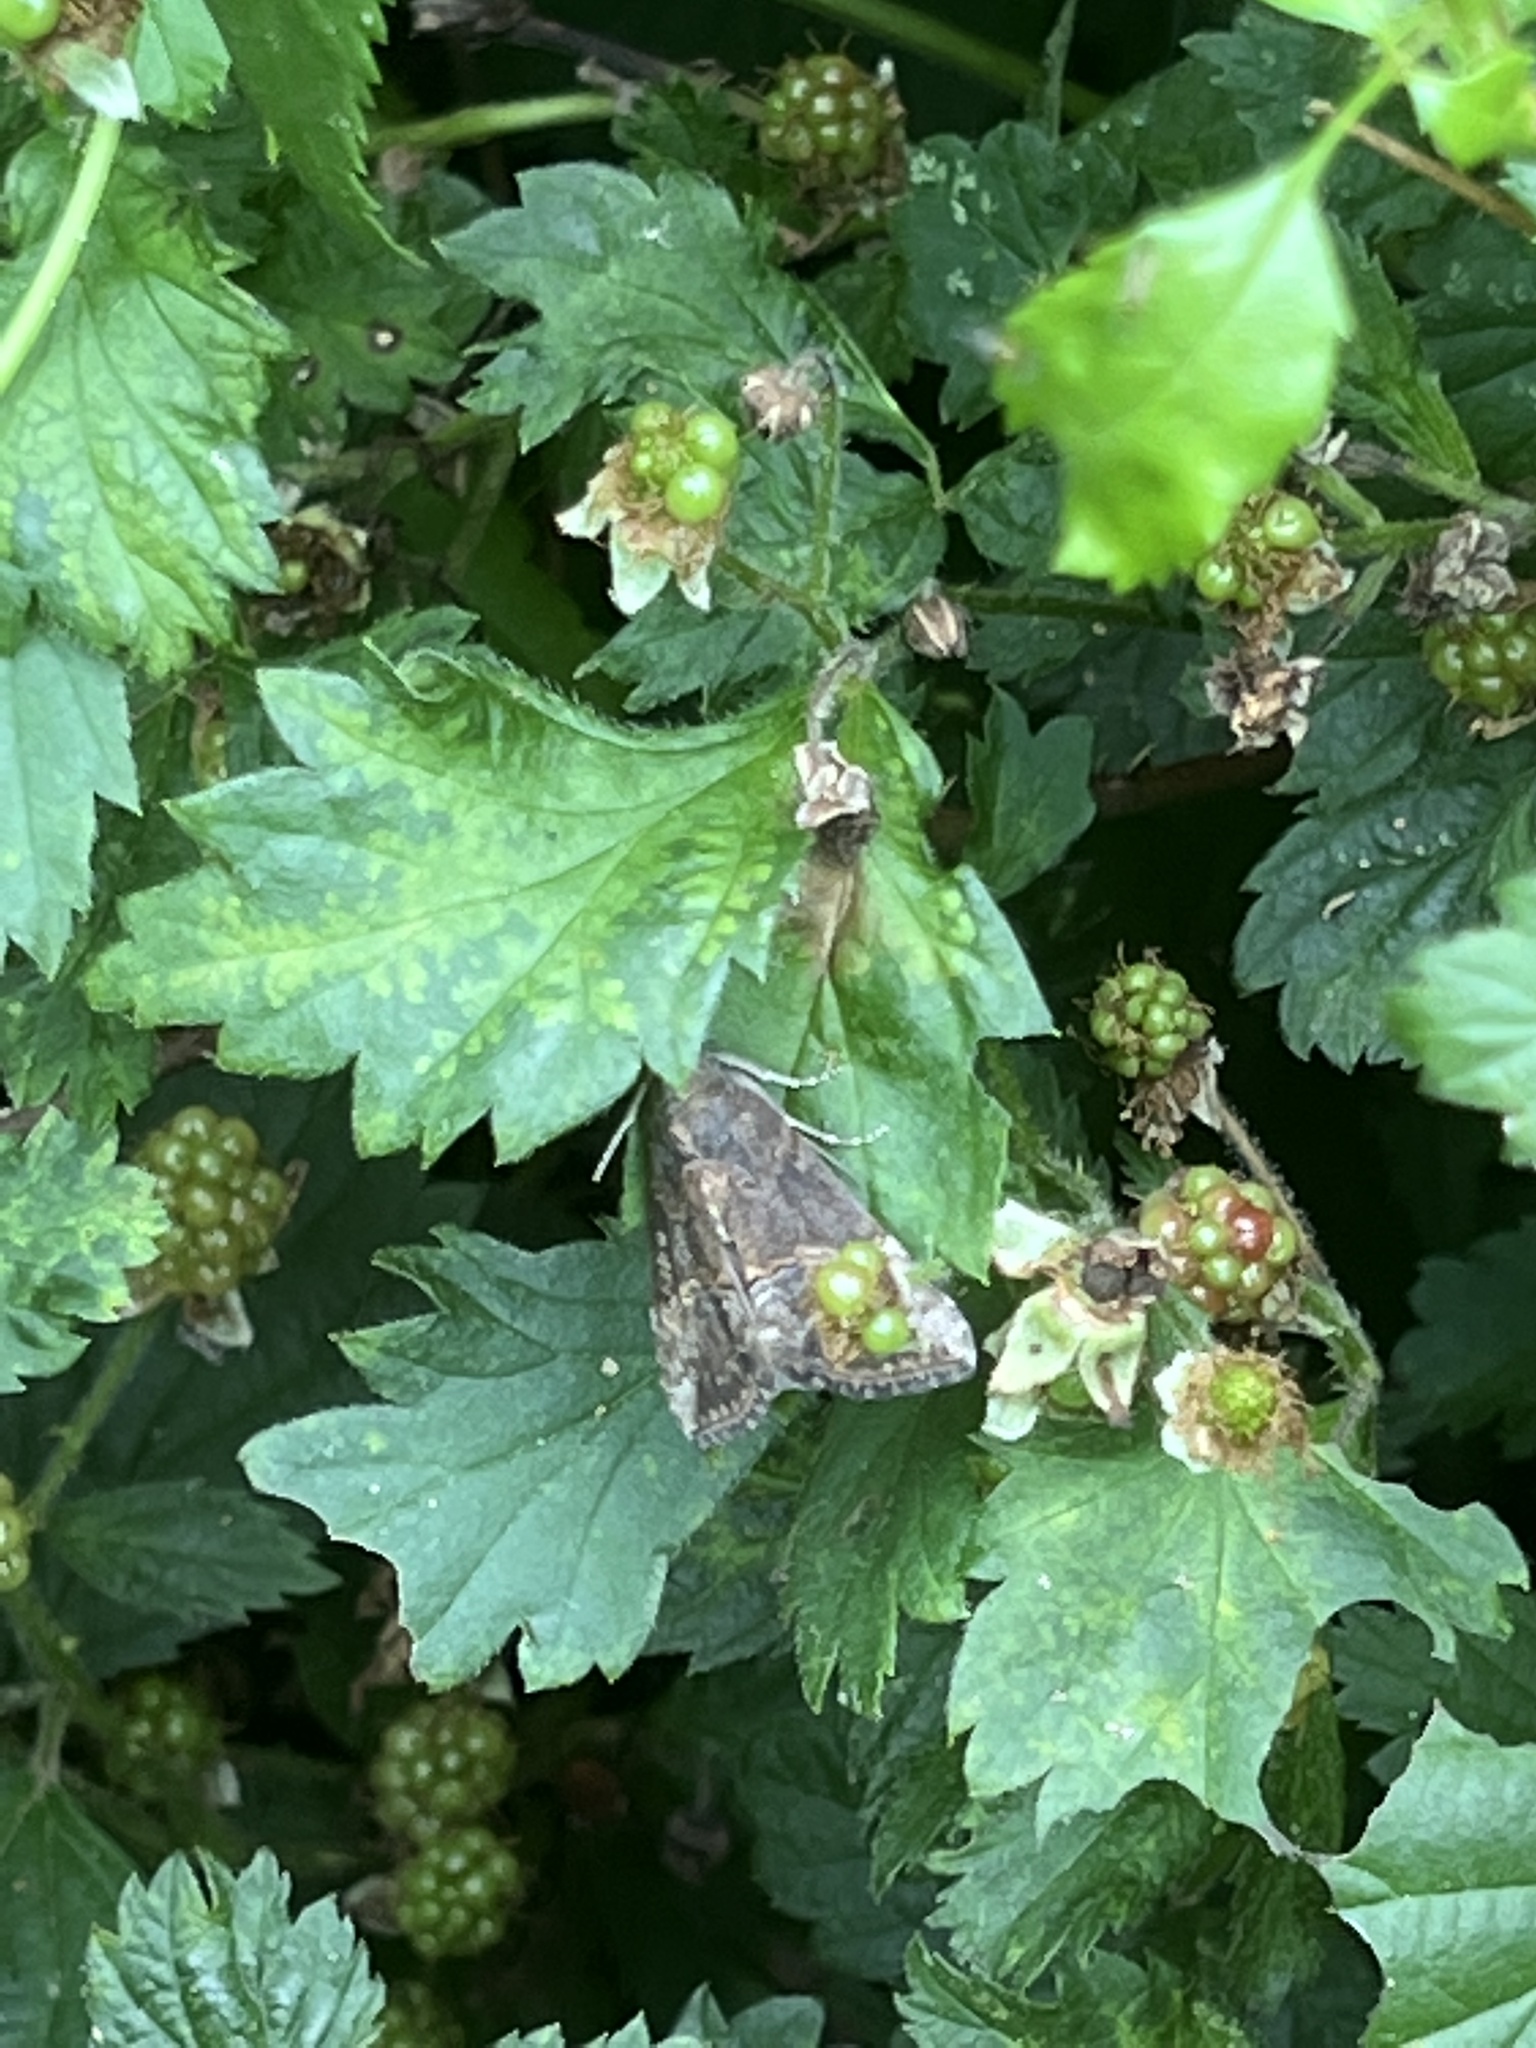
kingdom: Animalia
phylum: Arthropoda
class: Insecta
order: Lepidoptera
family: Erebidae
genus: Hypena
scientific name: Hypena scabra
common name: Green cloverworm
